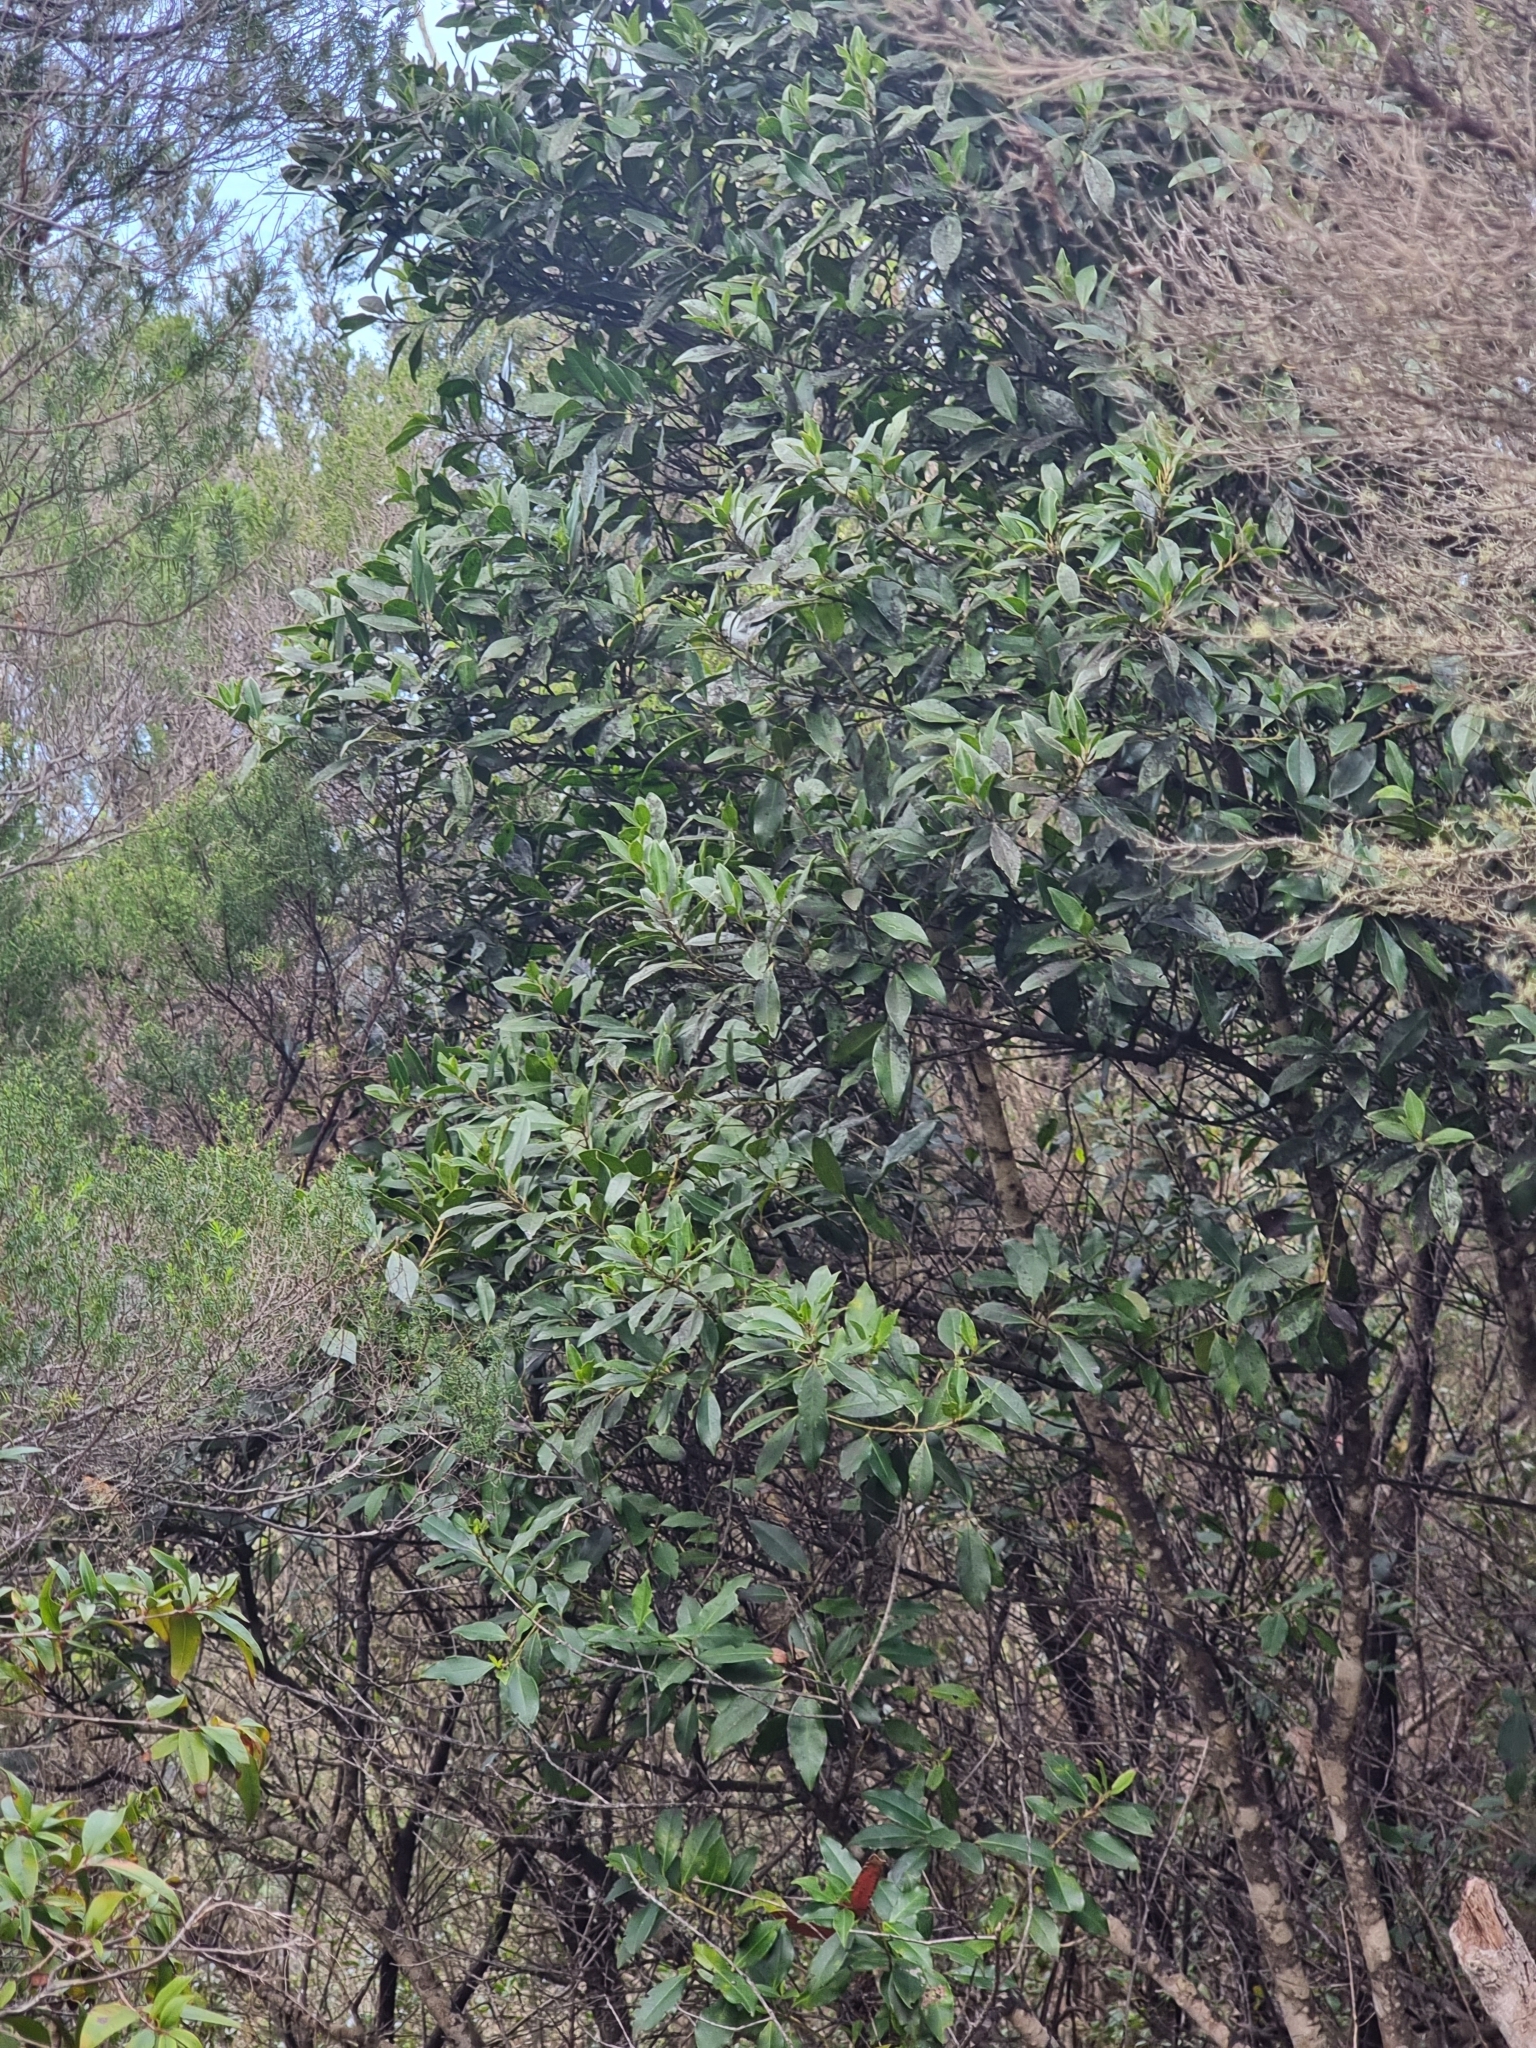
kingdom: Plantae
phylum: Tracheophyta
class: Magnoliopsida
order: Aquifoliales
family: Aquifoliaceae
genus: Ilex
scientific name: Ilex canariensis
